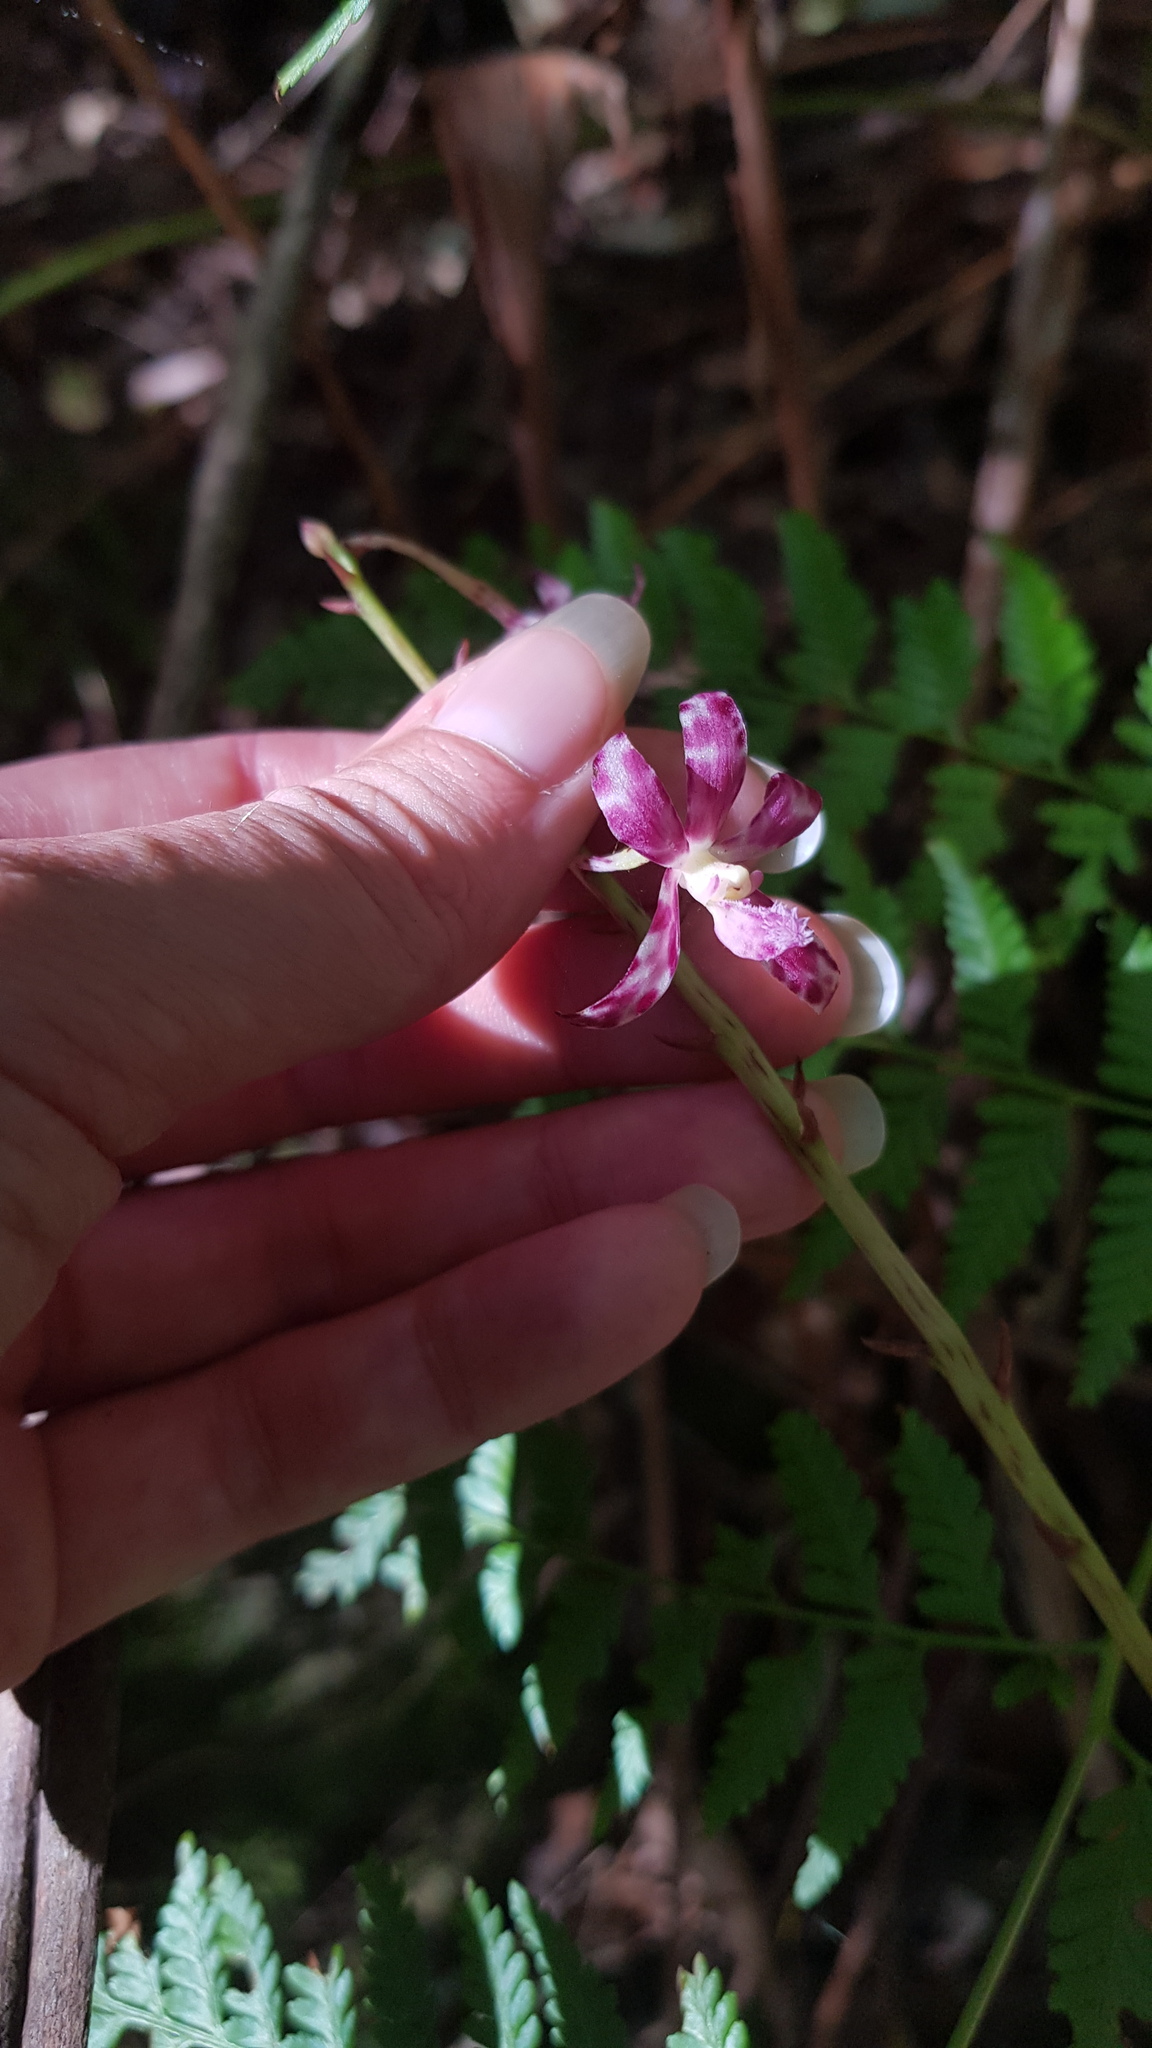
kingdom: Plantae
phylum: Tracheophyta
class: Liliopsida
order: Asparagales
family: Orchidaceae
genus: Dipodium
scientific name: Dipodium variegatum
